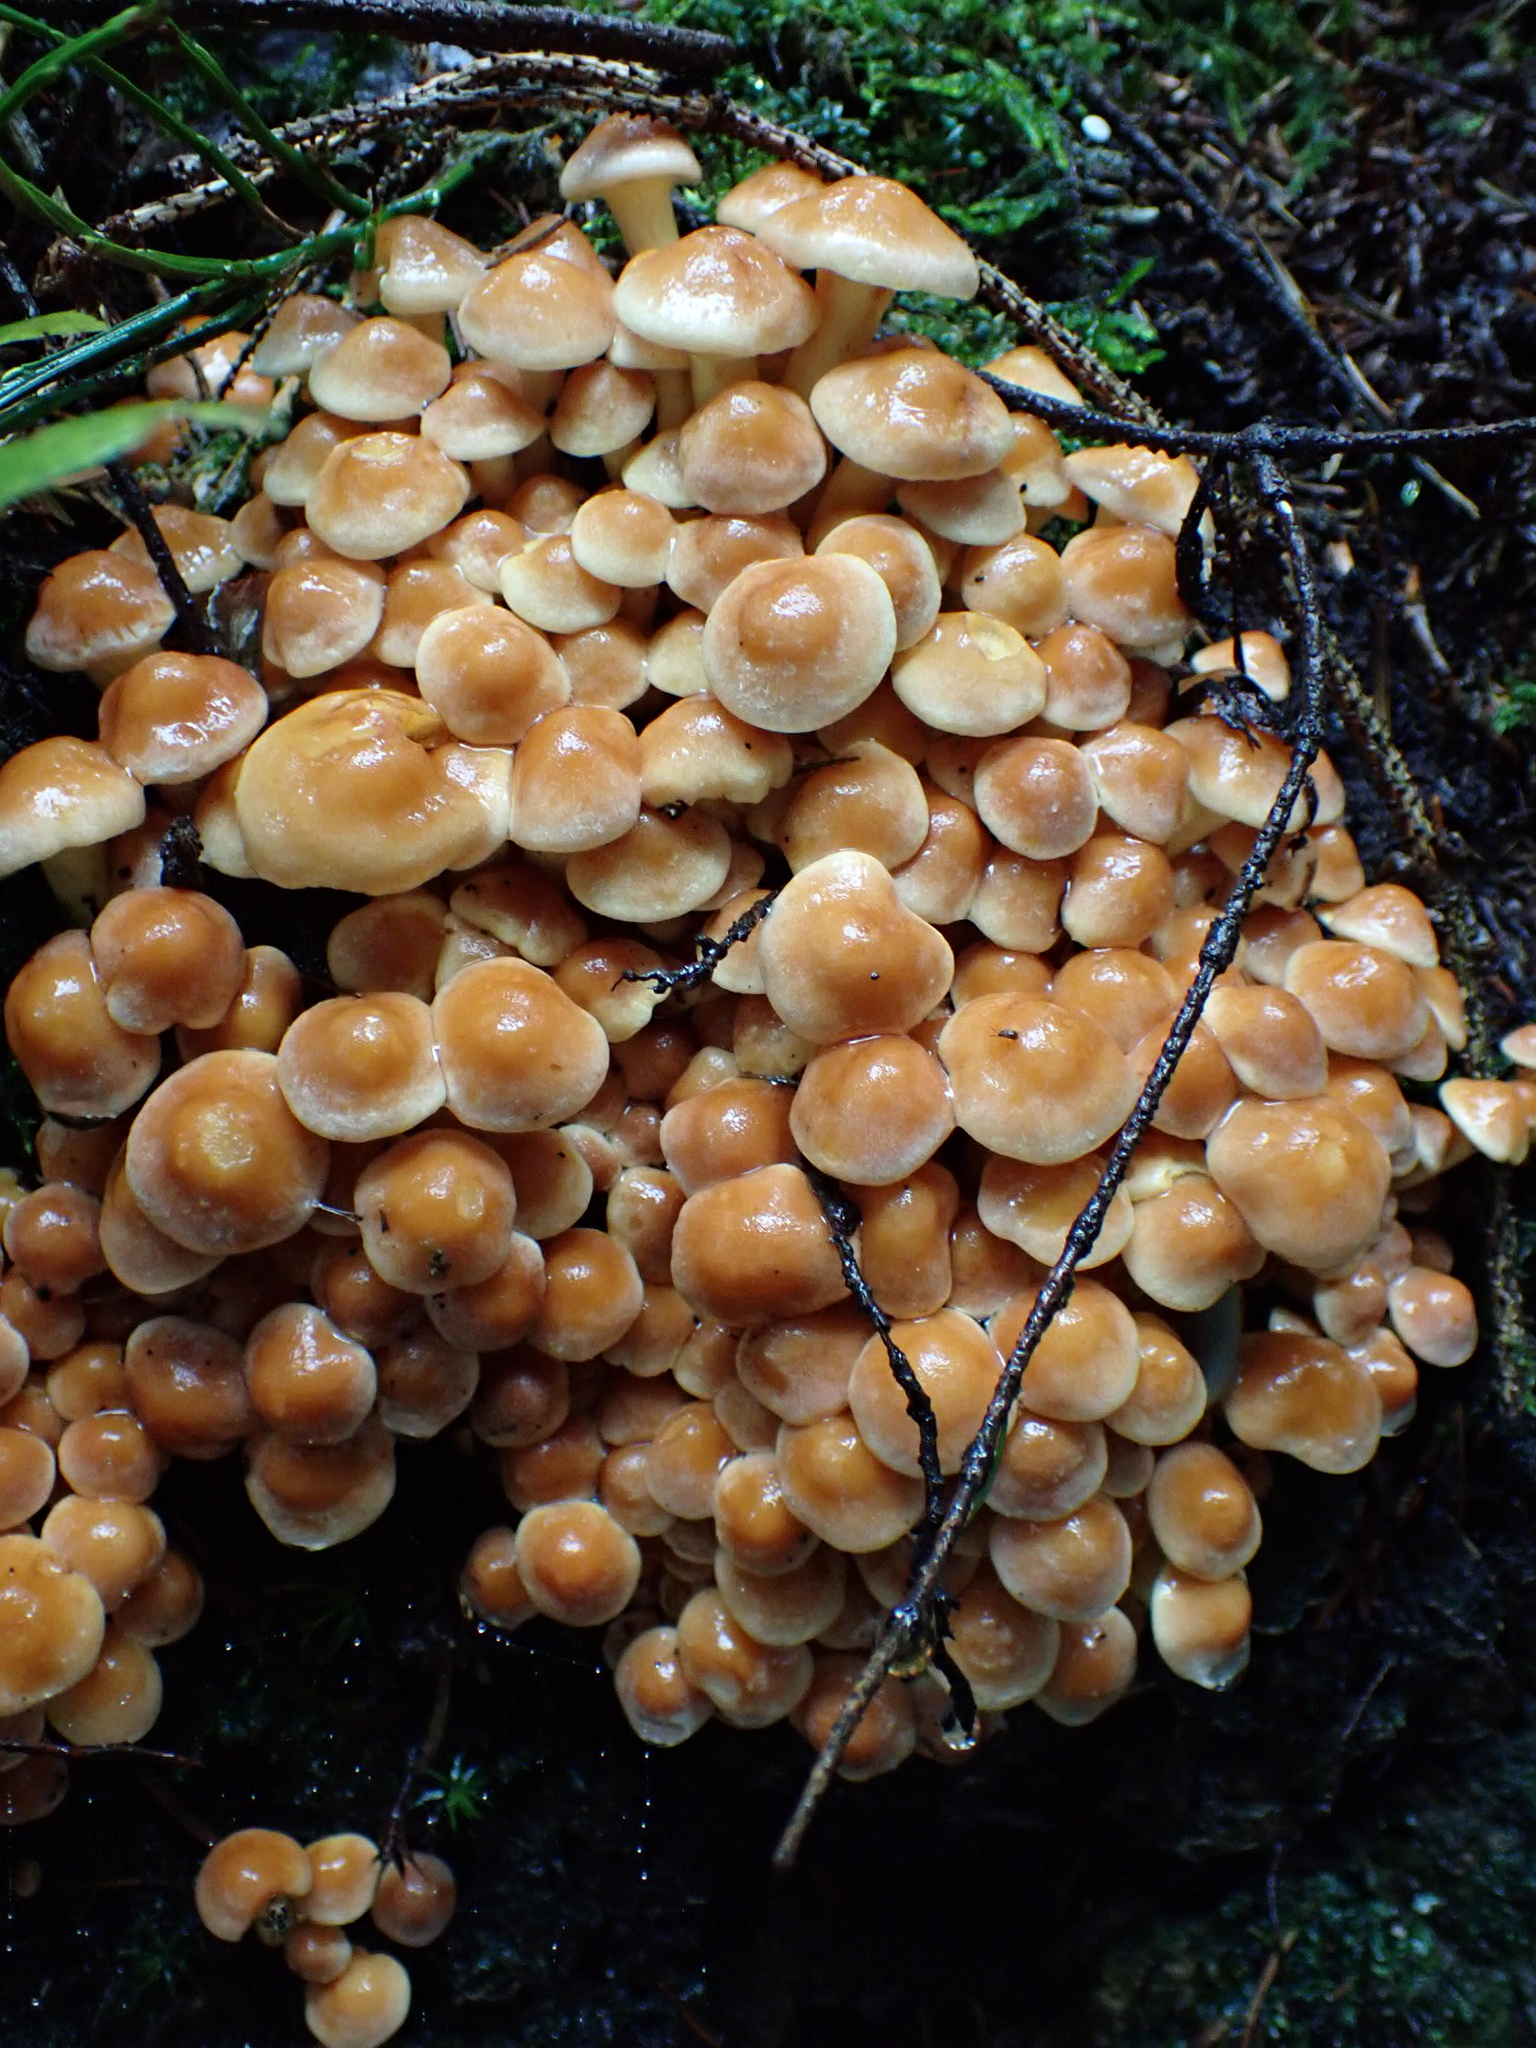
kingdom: Fungi
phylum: Basidiomycota
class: Agaricomycetes
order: Agaricales
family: Strophariaceae
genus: Hypholoma
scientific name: Hypholoma fasciculare
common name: Sulphur tuft
